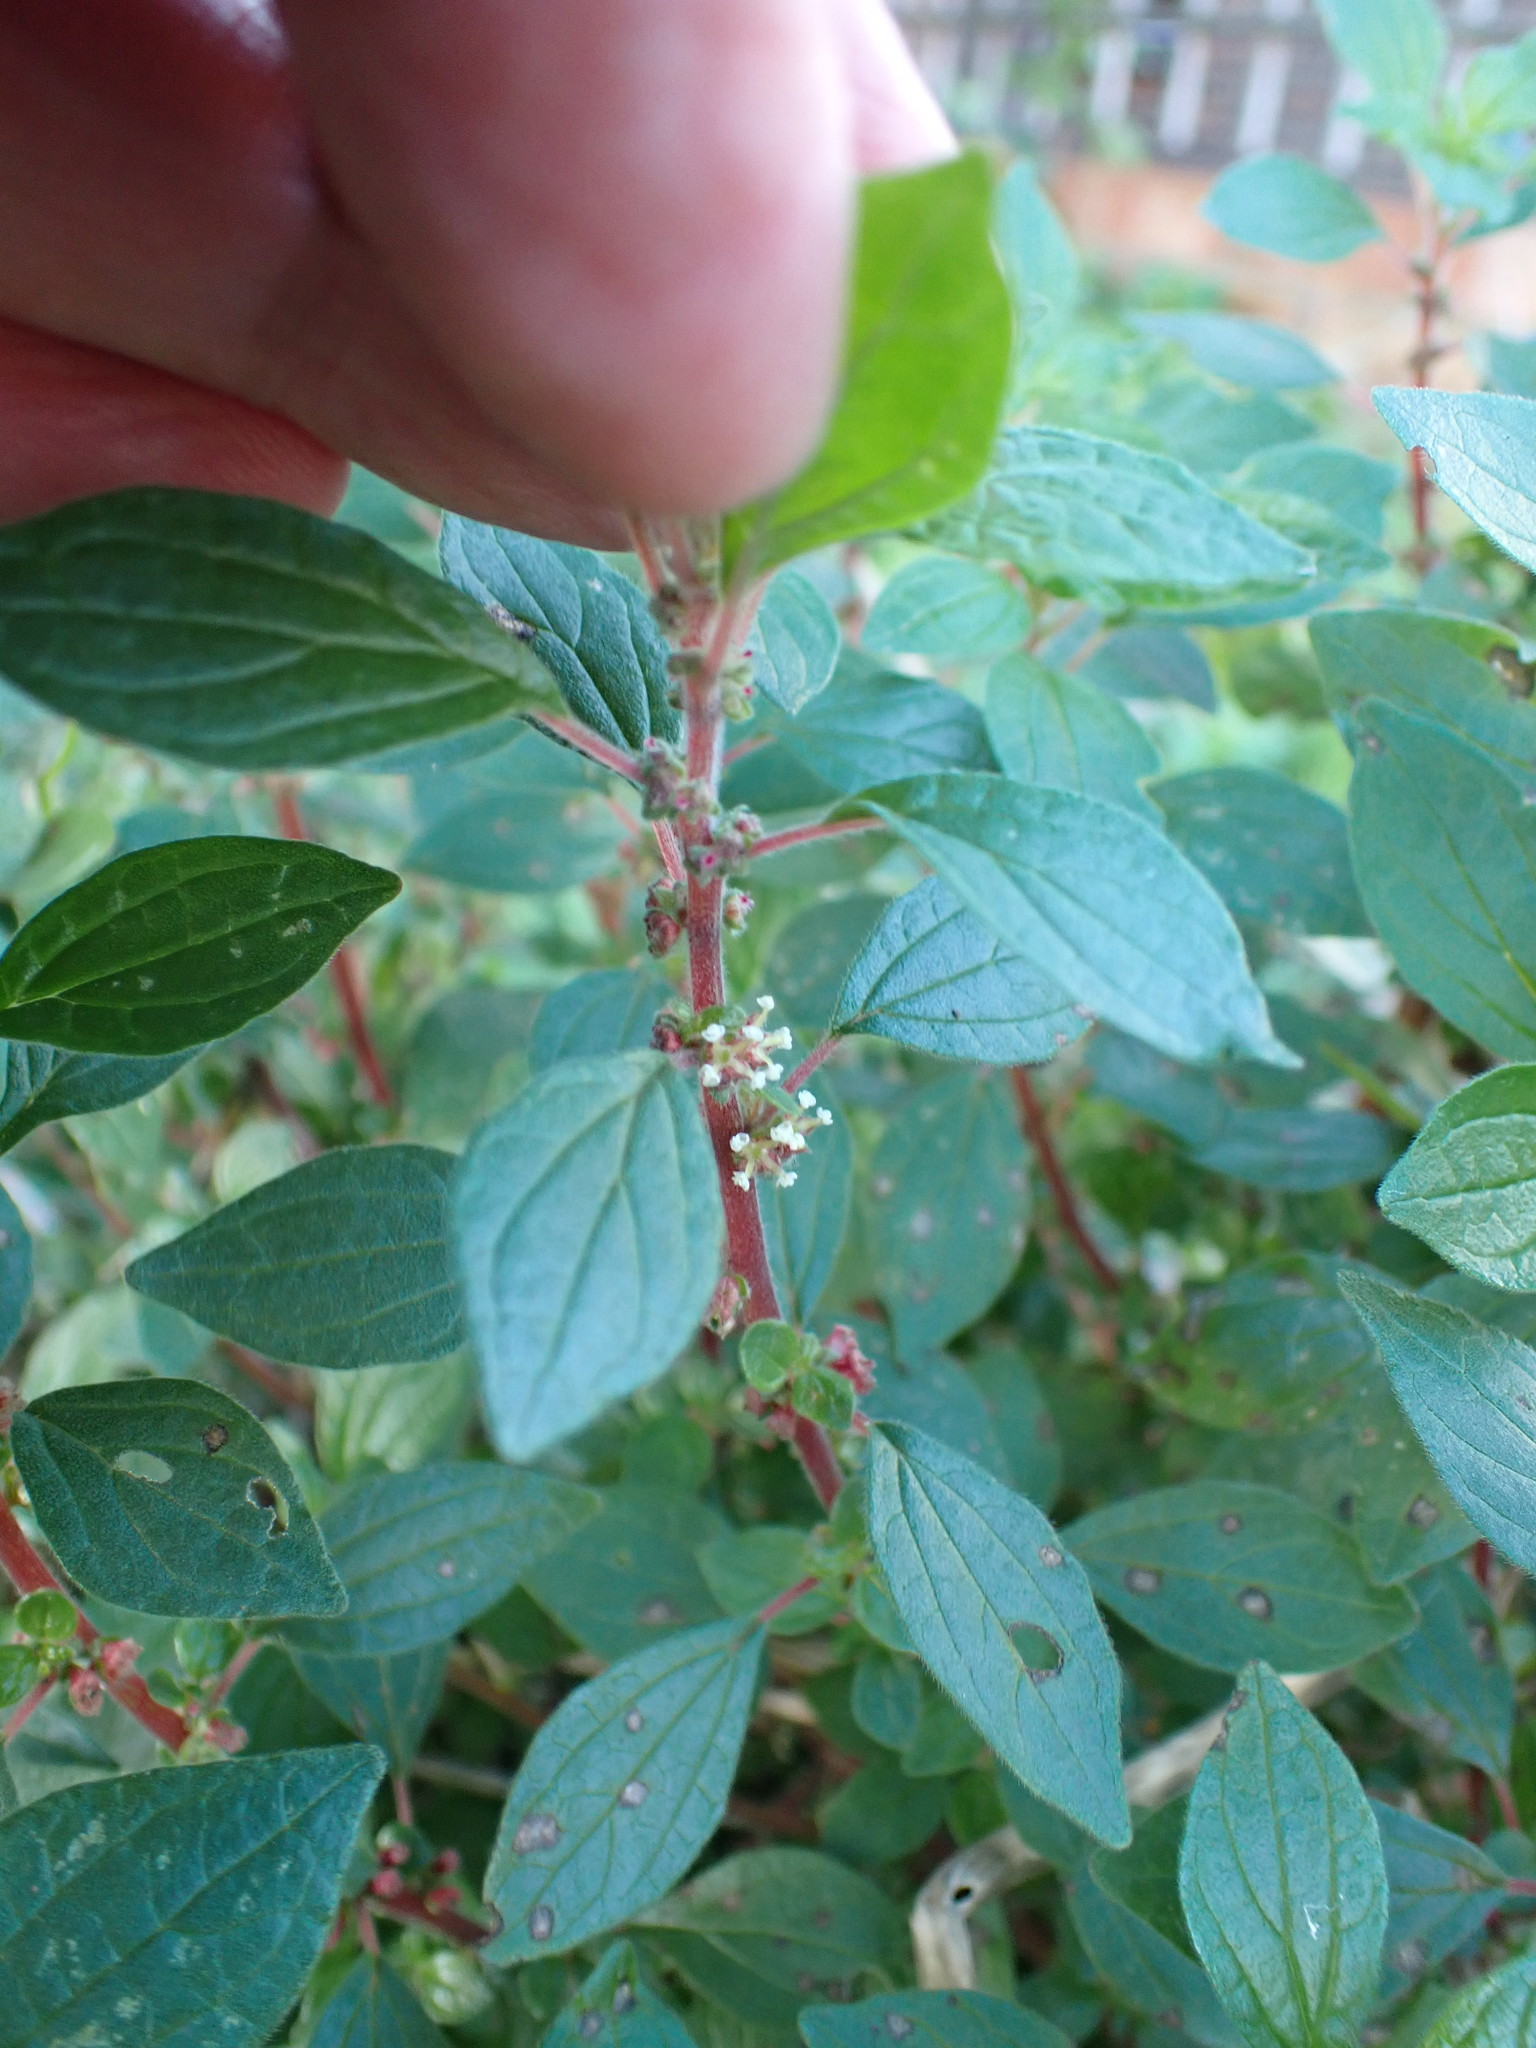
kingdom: Plantae
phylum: Tracheophyta
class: Magnoliopsida
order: Rosales
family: Urticaceae
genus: Parietaria
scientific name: Parietaria judaica
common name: Pellitory-of-the-wall
